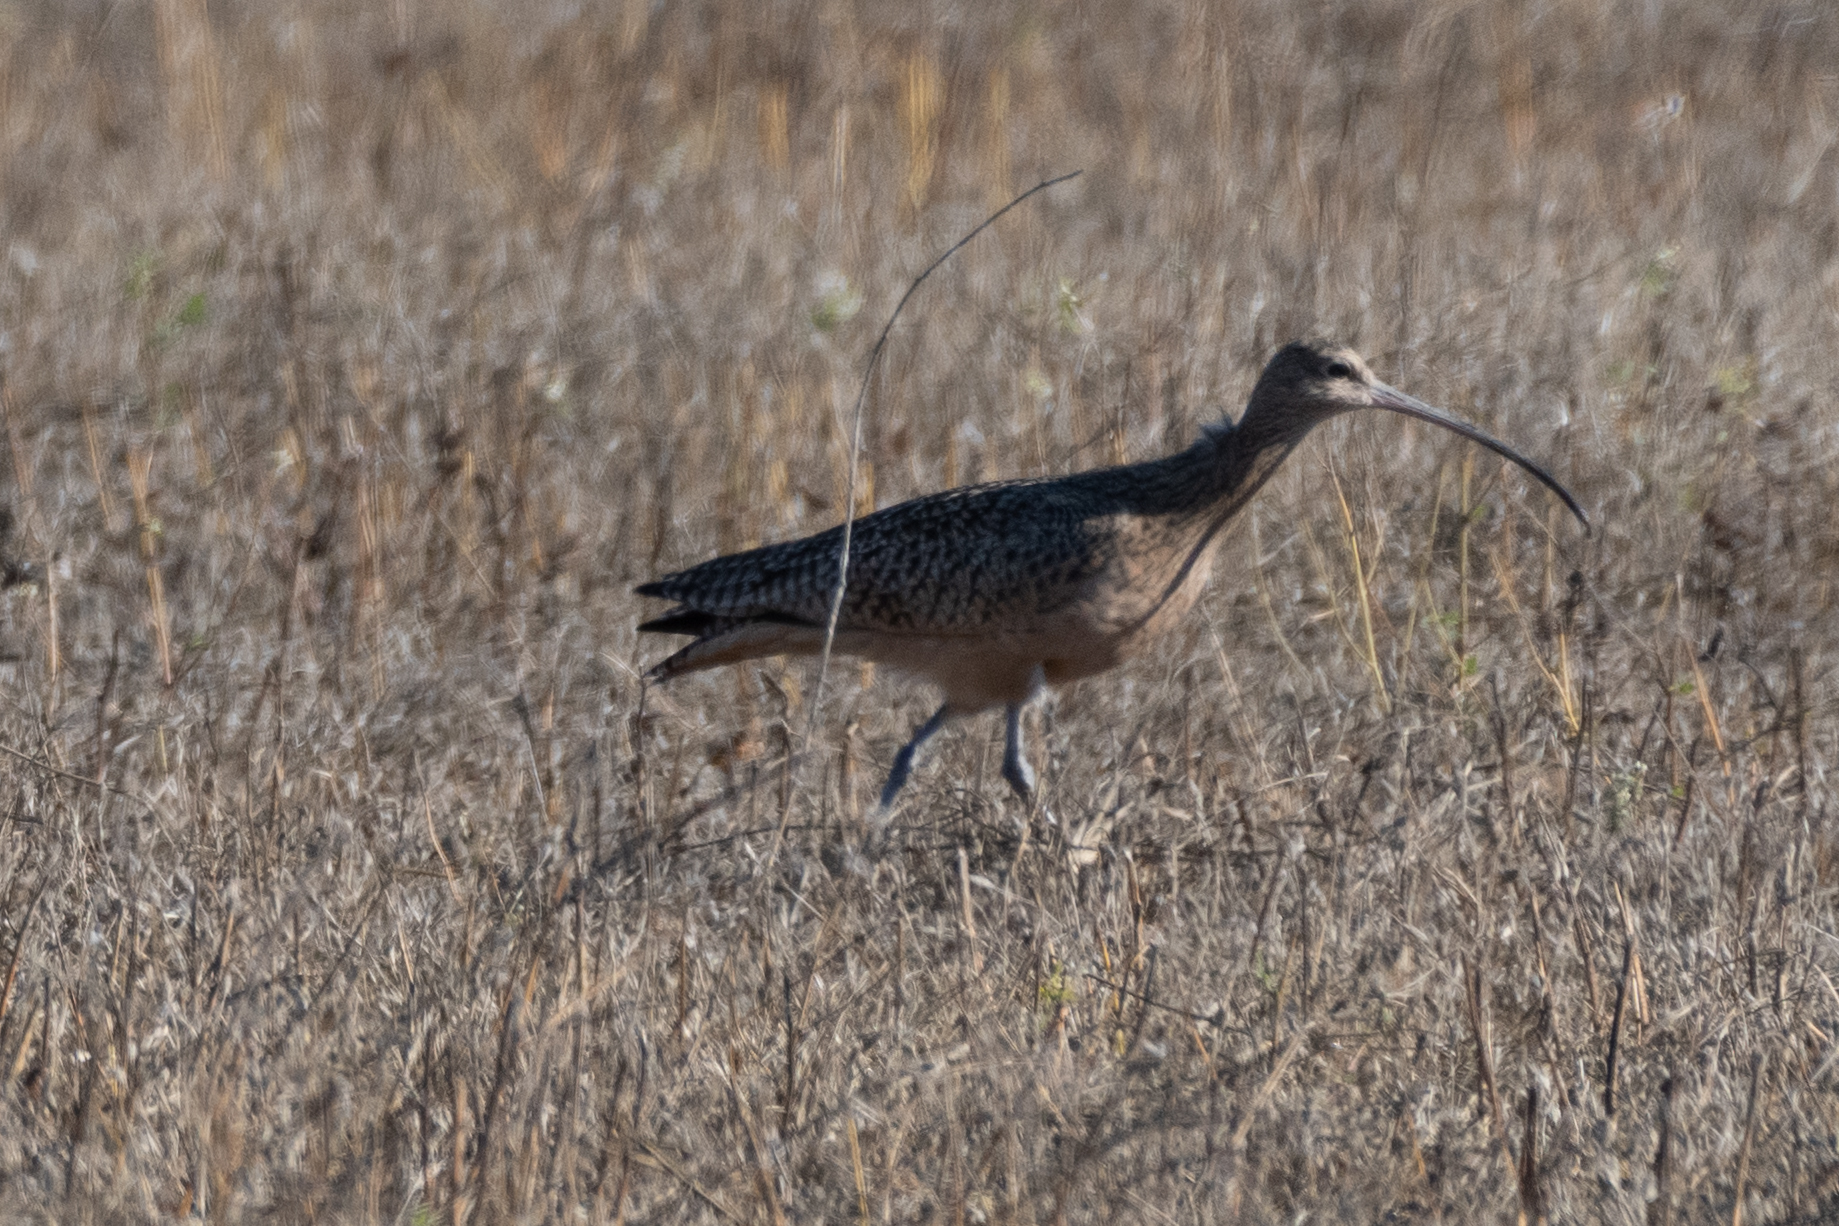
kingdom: Animalia
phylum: Chordata
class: Aves
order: Charadriiformes
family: Scolopacidae
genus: Numenius
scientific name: Numenius americanus
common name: Long-billed curlew
